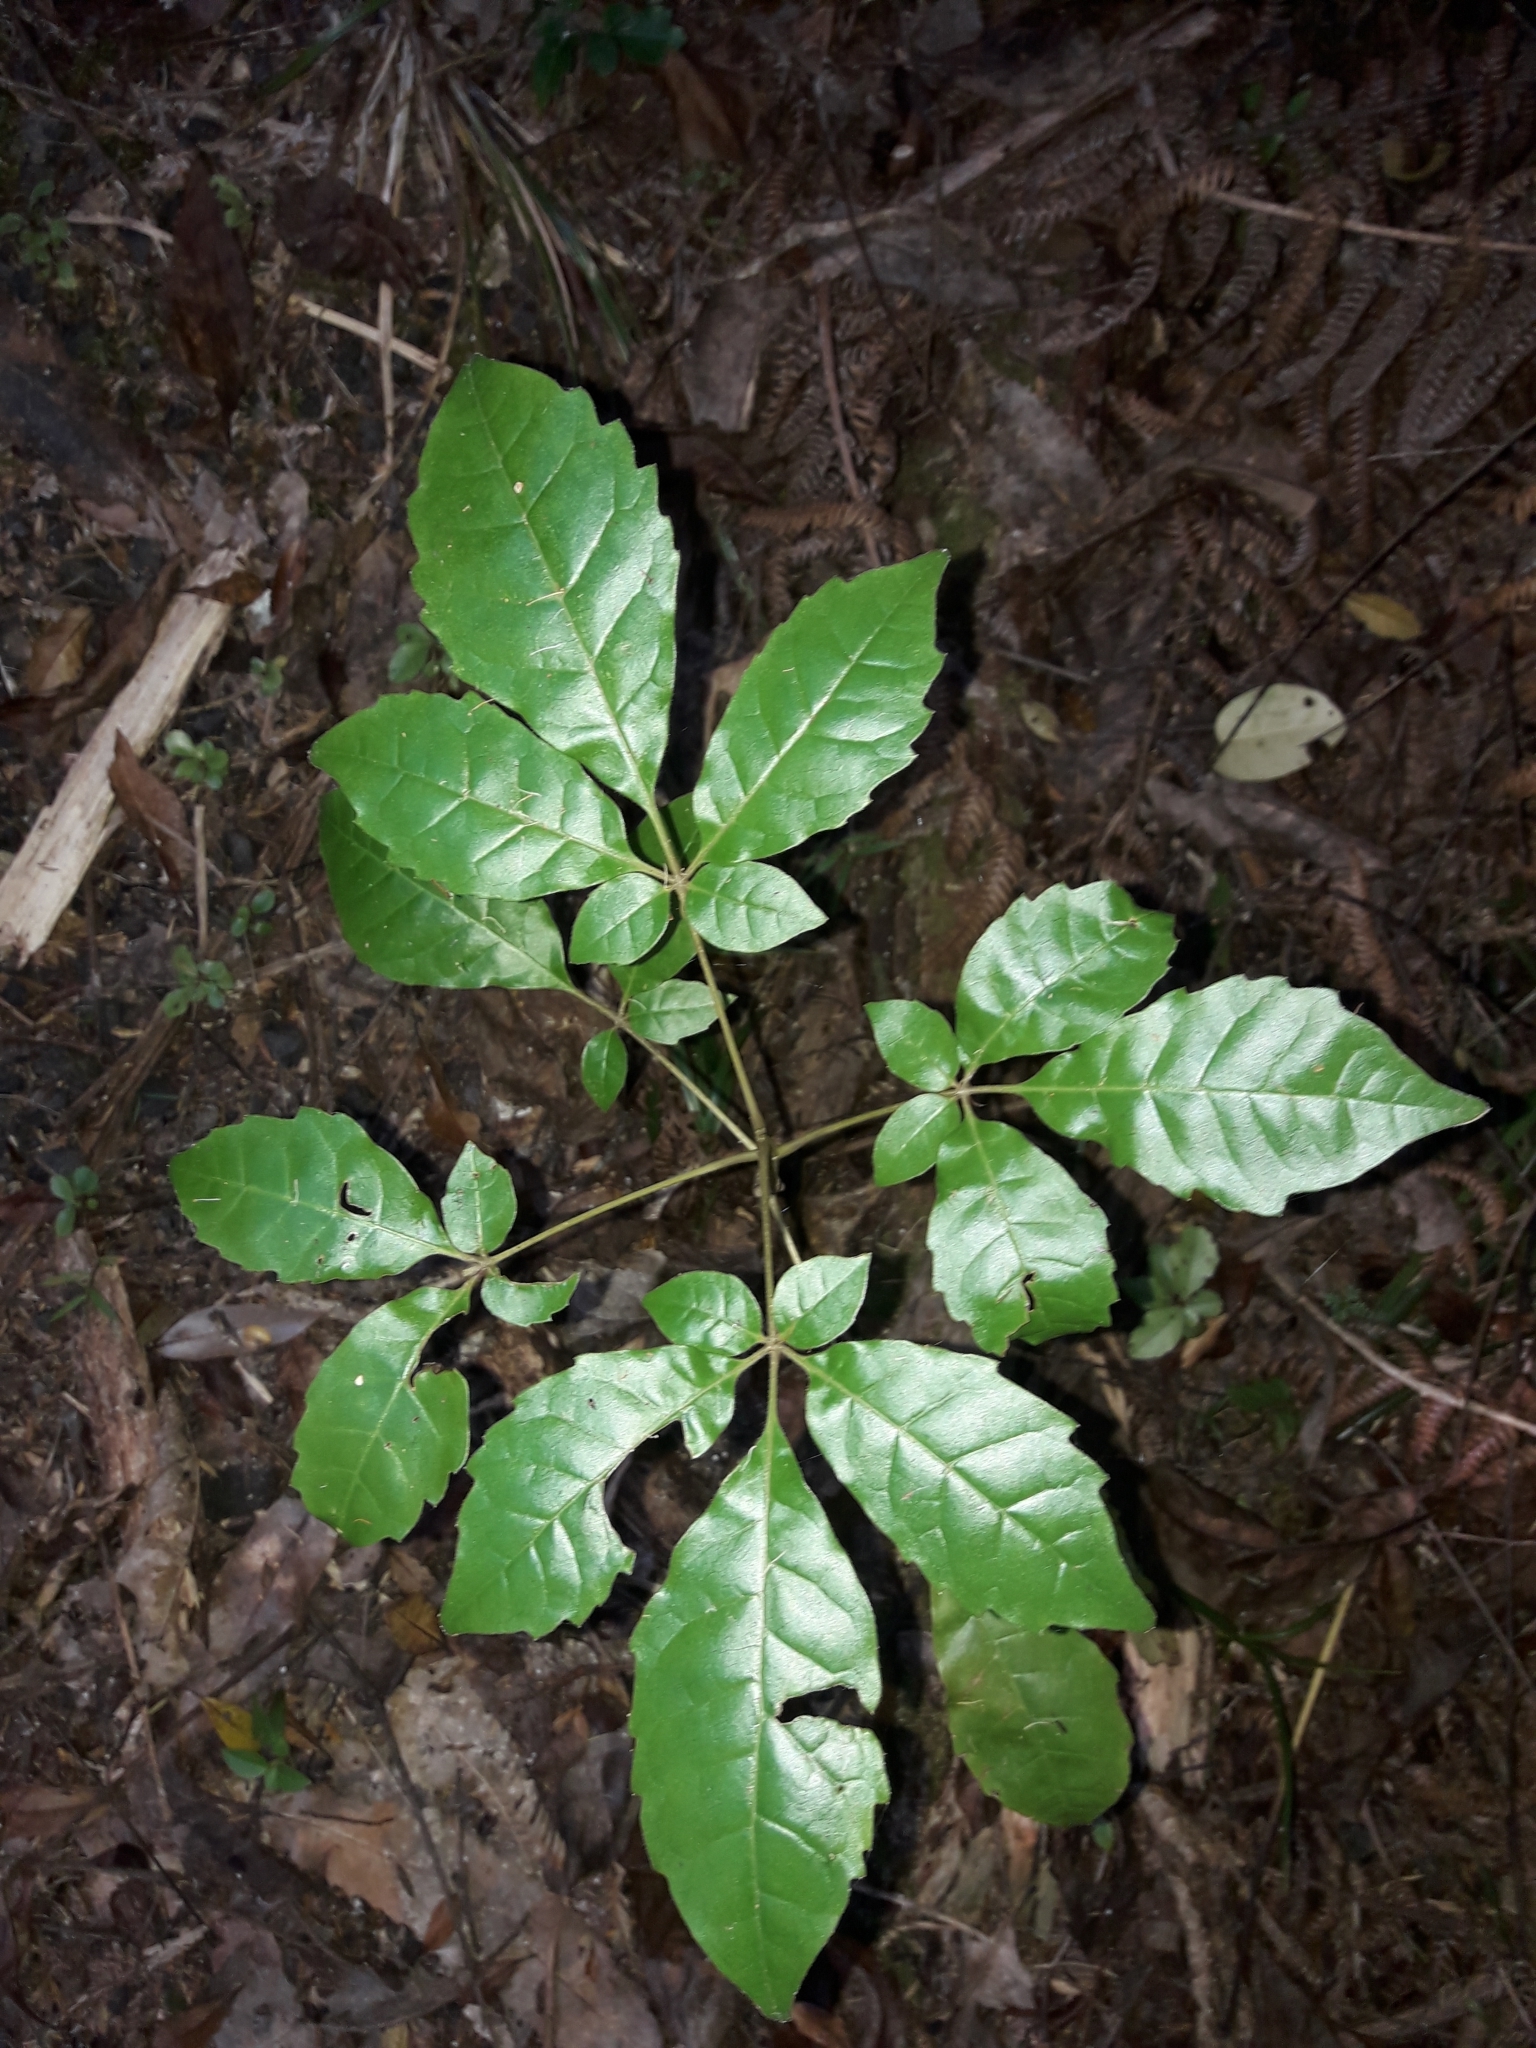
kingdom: Plantae
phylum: Tracheophyta
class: Magnoliopsida
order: Lamiales
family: Lamiaceae
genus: Vitex
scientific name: Vitex lucens
